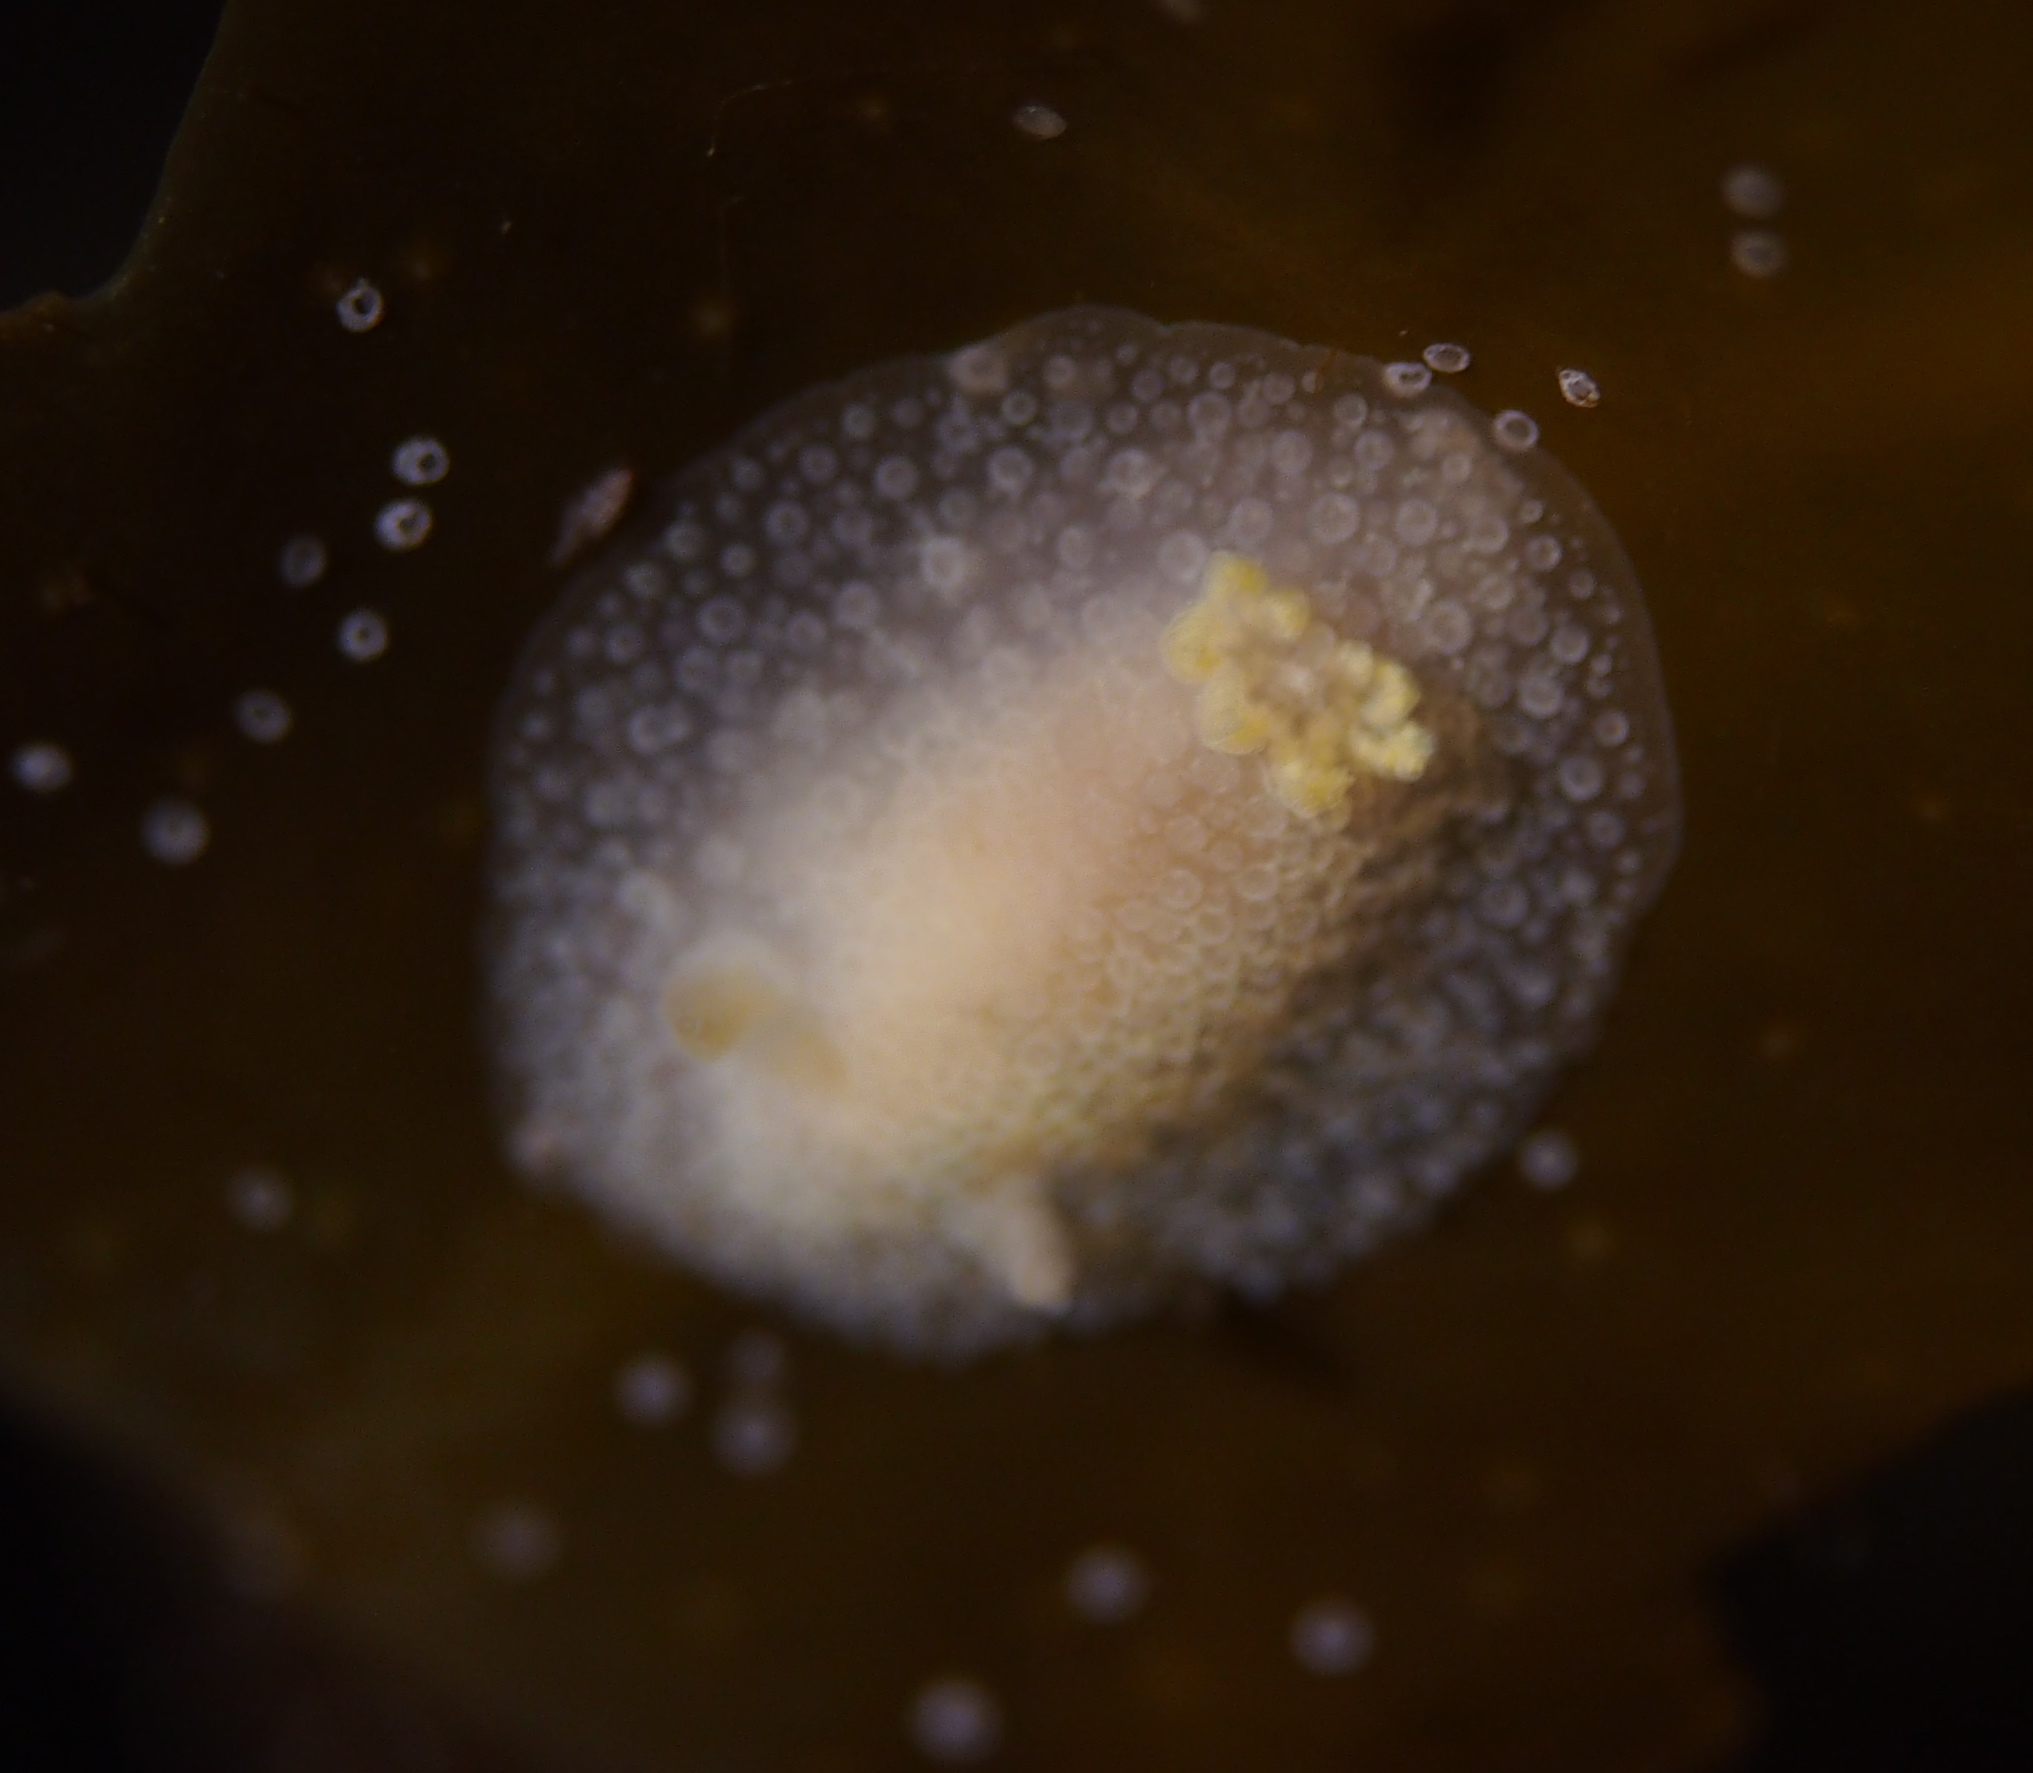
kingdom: Animalia
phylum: Mollusca
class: Gastropoda
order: Nudibranchia
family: Onchidorididae
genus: Acanthodoris
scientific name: Acanthodoris pilosa
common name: Hairy spiny doris
